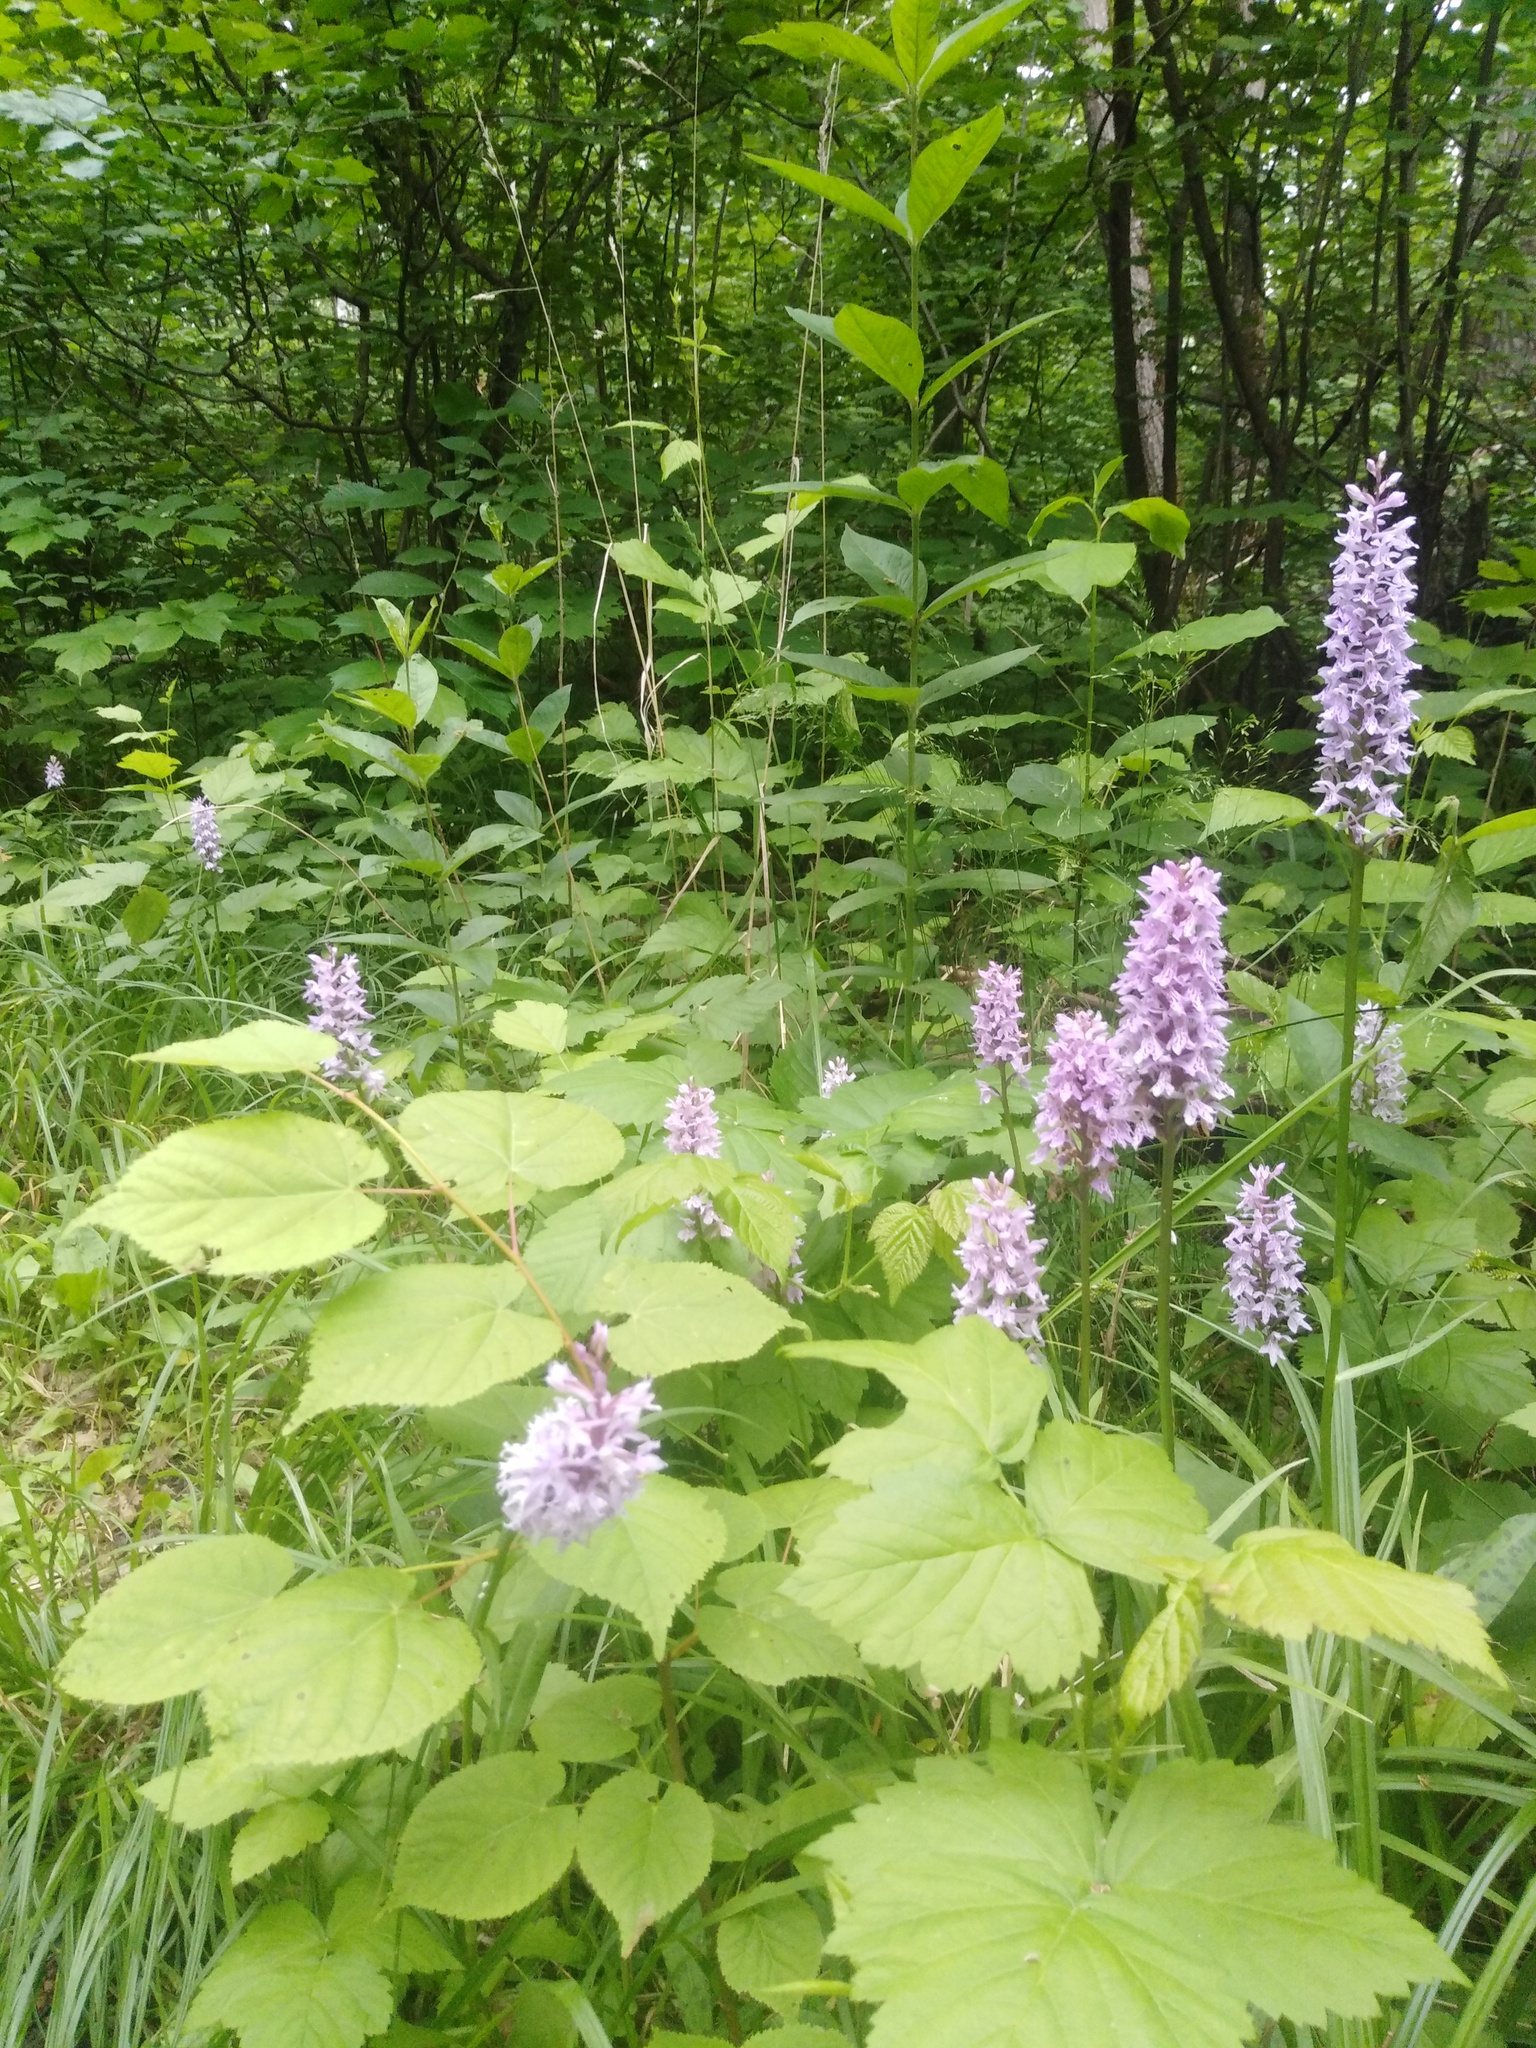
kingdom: Plantae
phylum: Tracheophyta
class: Liliopsida
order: Asparagales
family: Orchidaceae
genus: Dactylorhiza
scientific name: Dactylorhiza maculata
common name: Heath spotted-orchid
